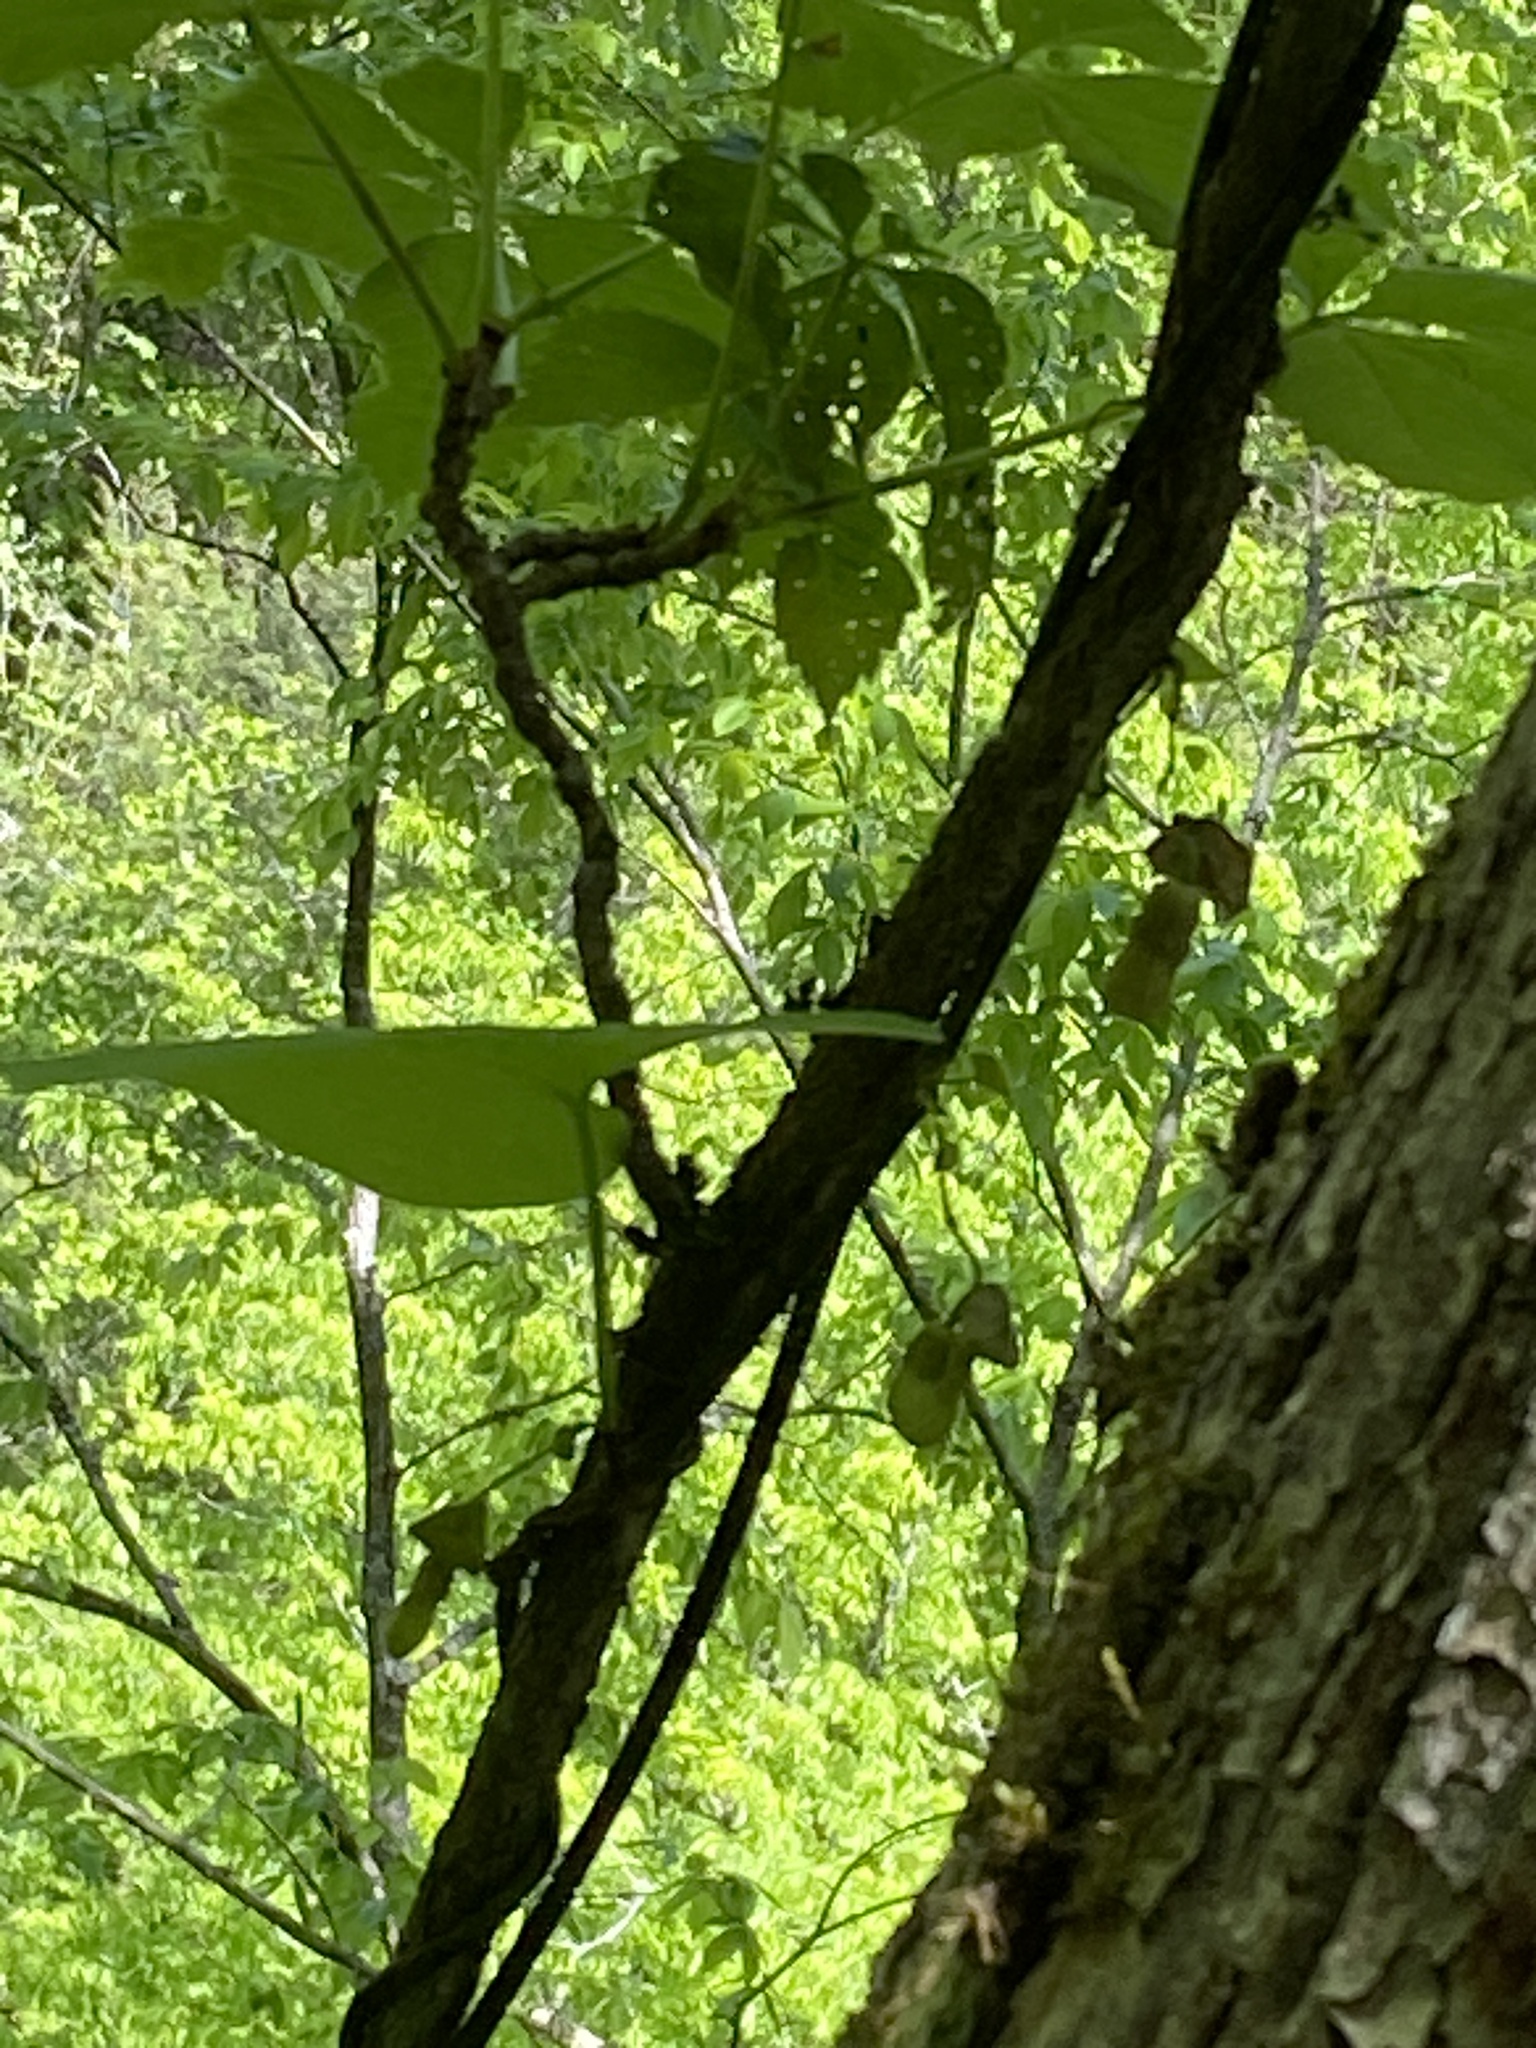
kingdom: Plantae
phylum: Tracheophyta
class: Magnoliopsida
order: Piperales
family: Aristolochiaceae
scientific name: Aristolochiaceae
